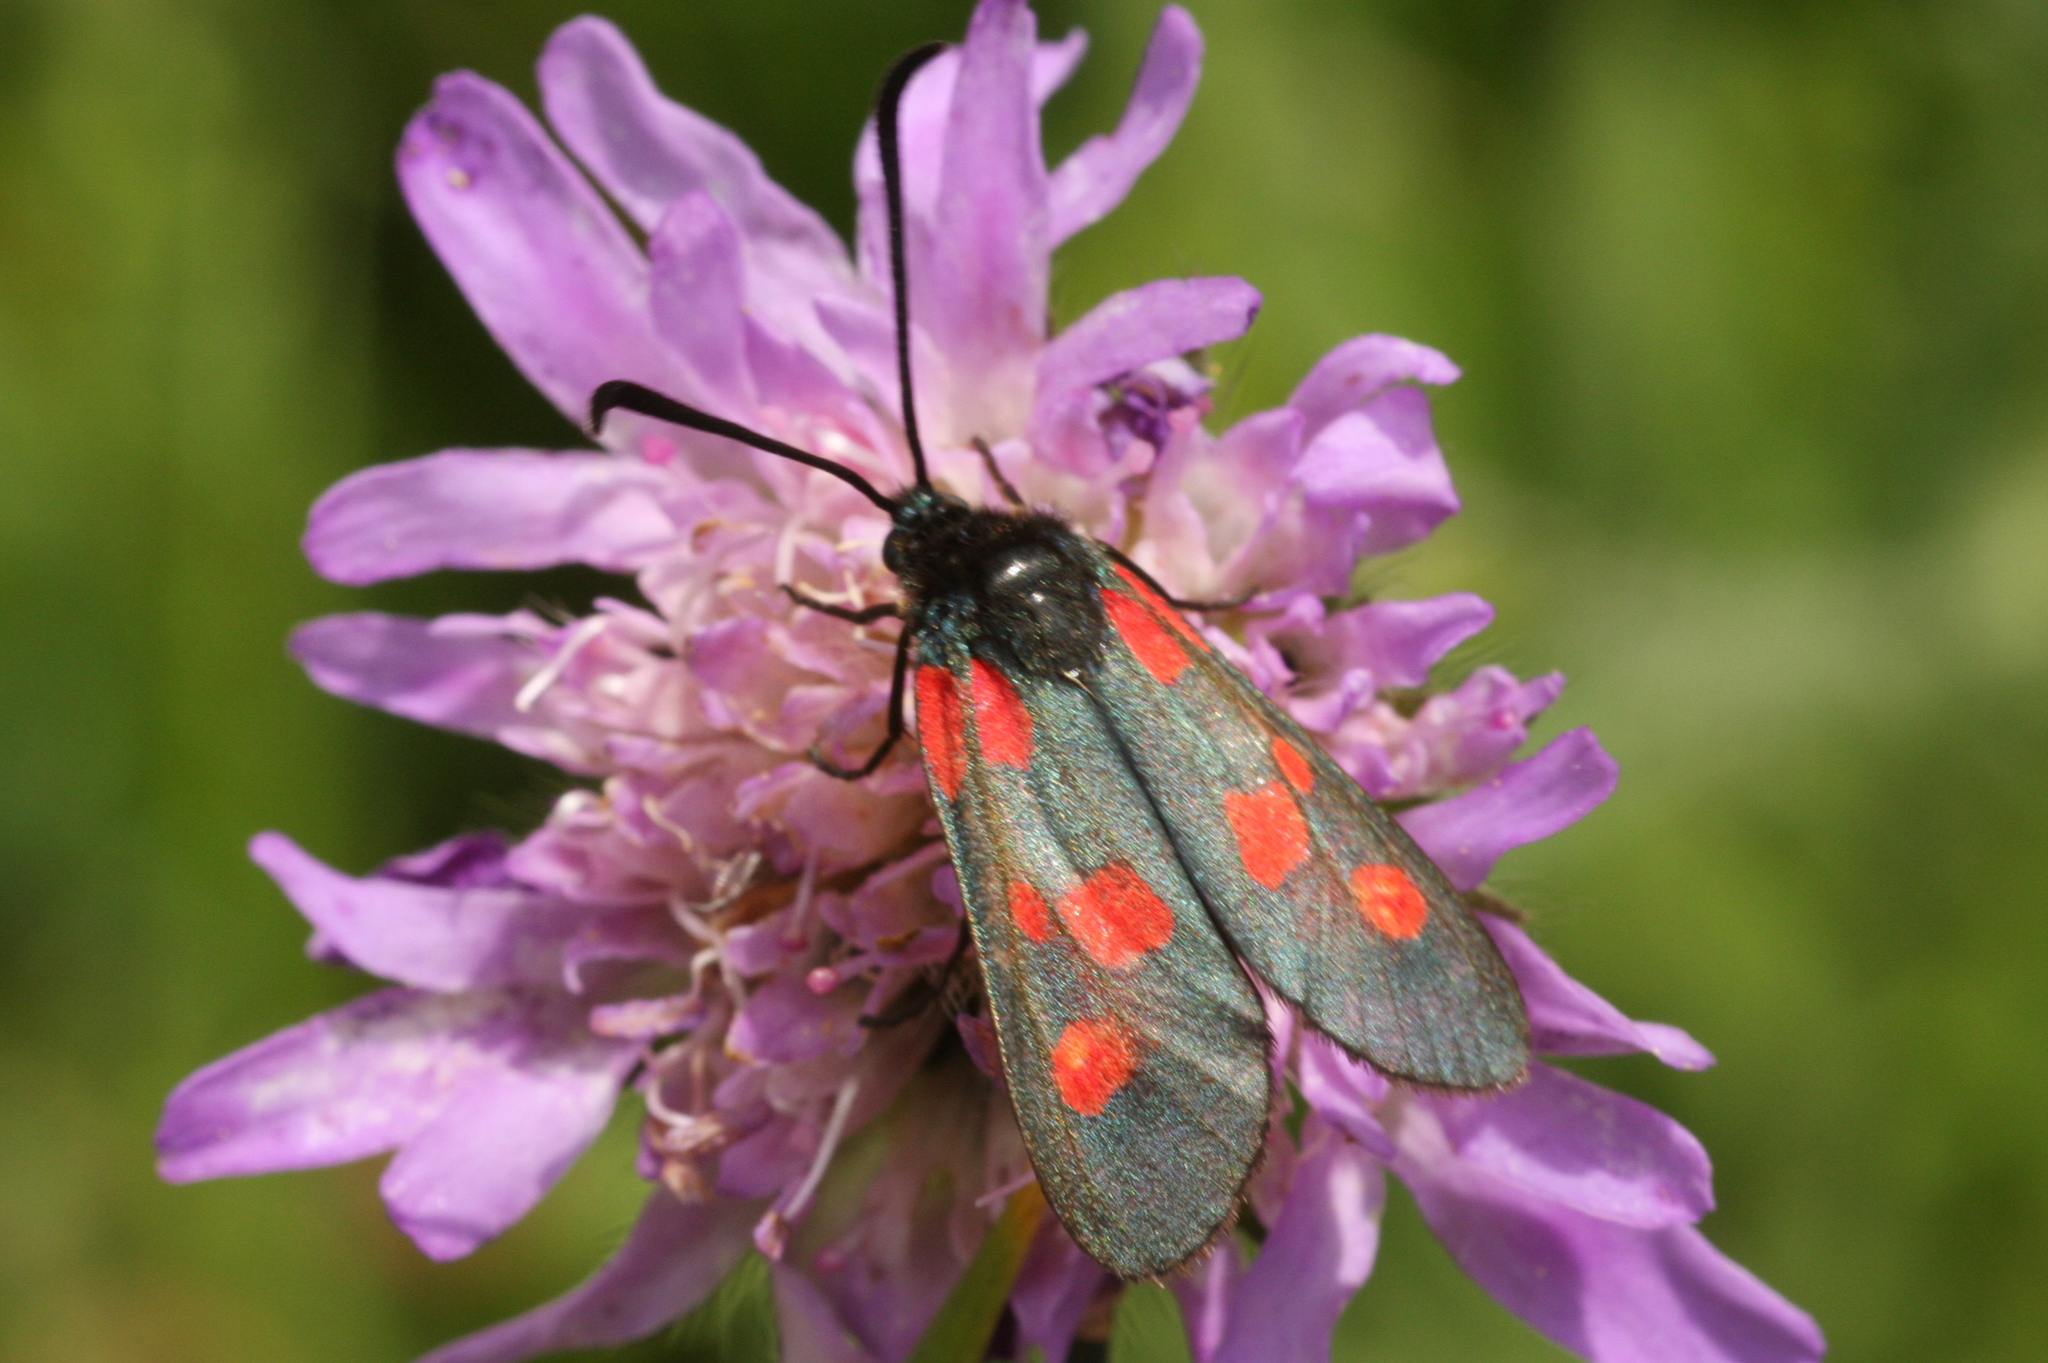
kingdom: Animalia
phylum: Arthropoda
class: Insecta
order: Lepidoptera
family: Zygaenidae
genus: Zygaena
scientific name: Zygaena viciae
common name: New forest burnet
